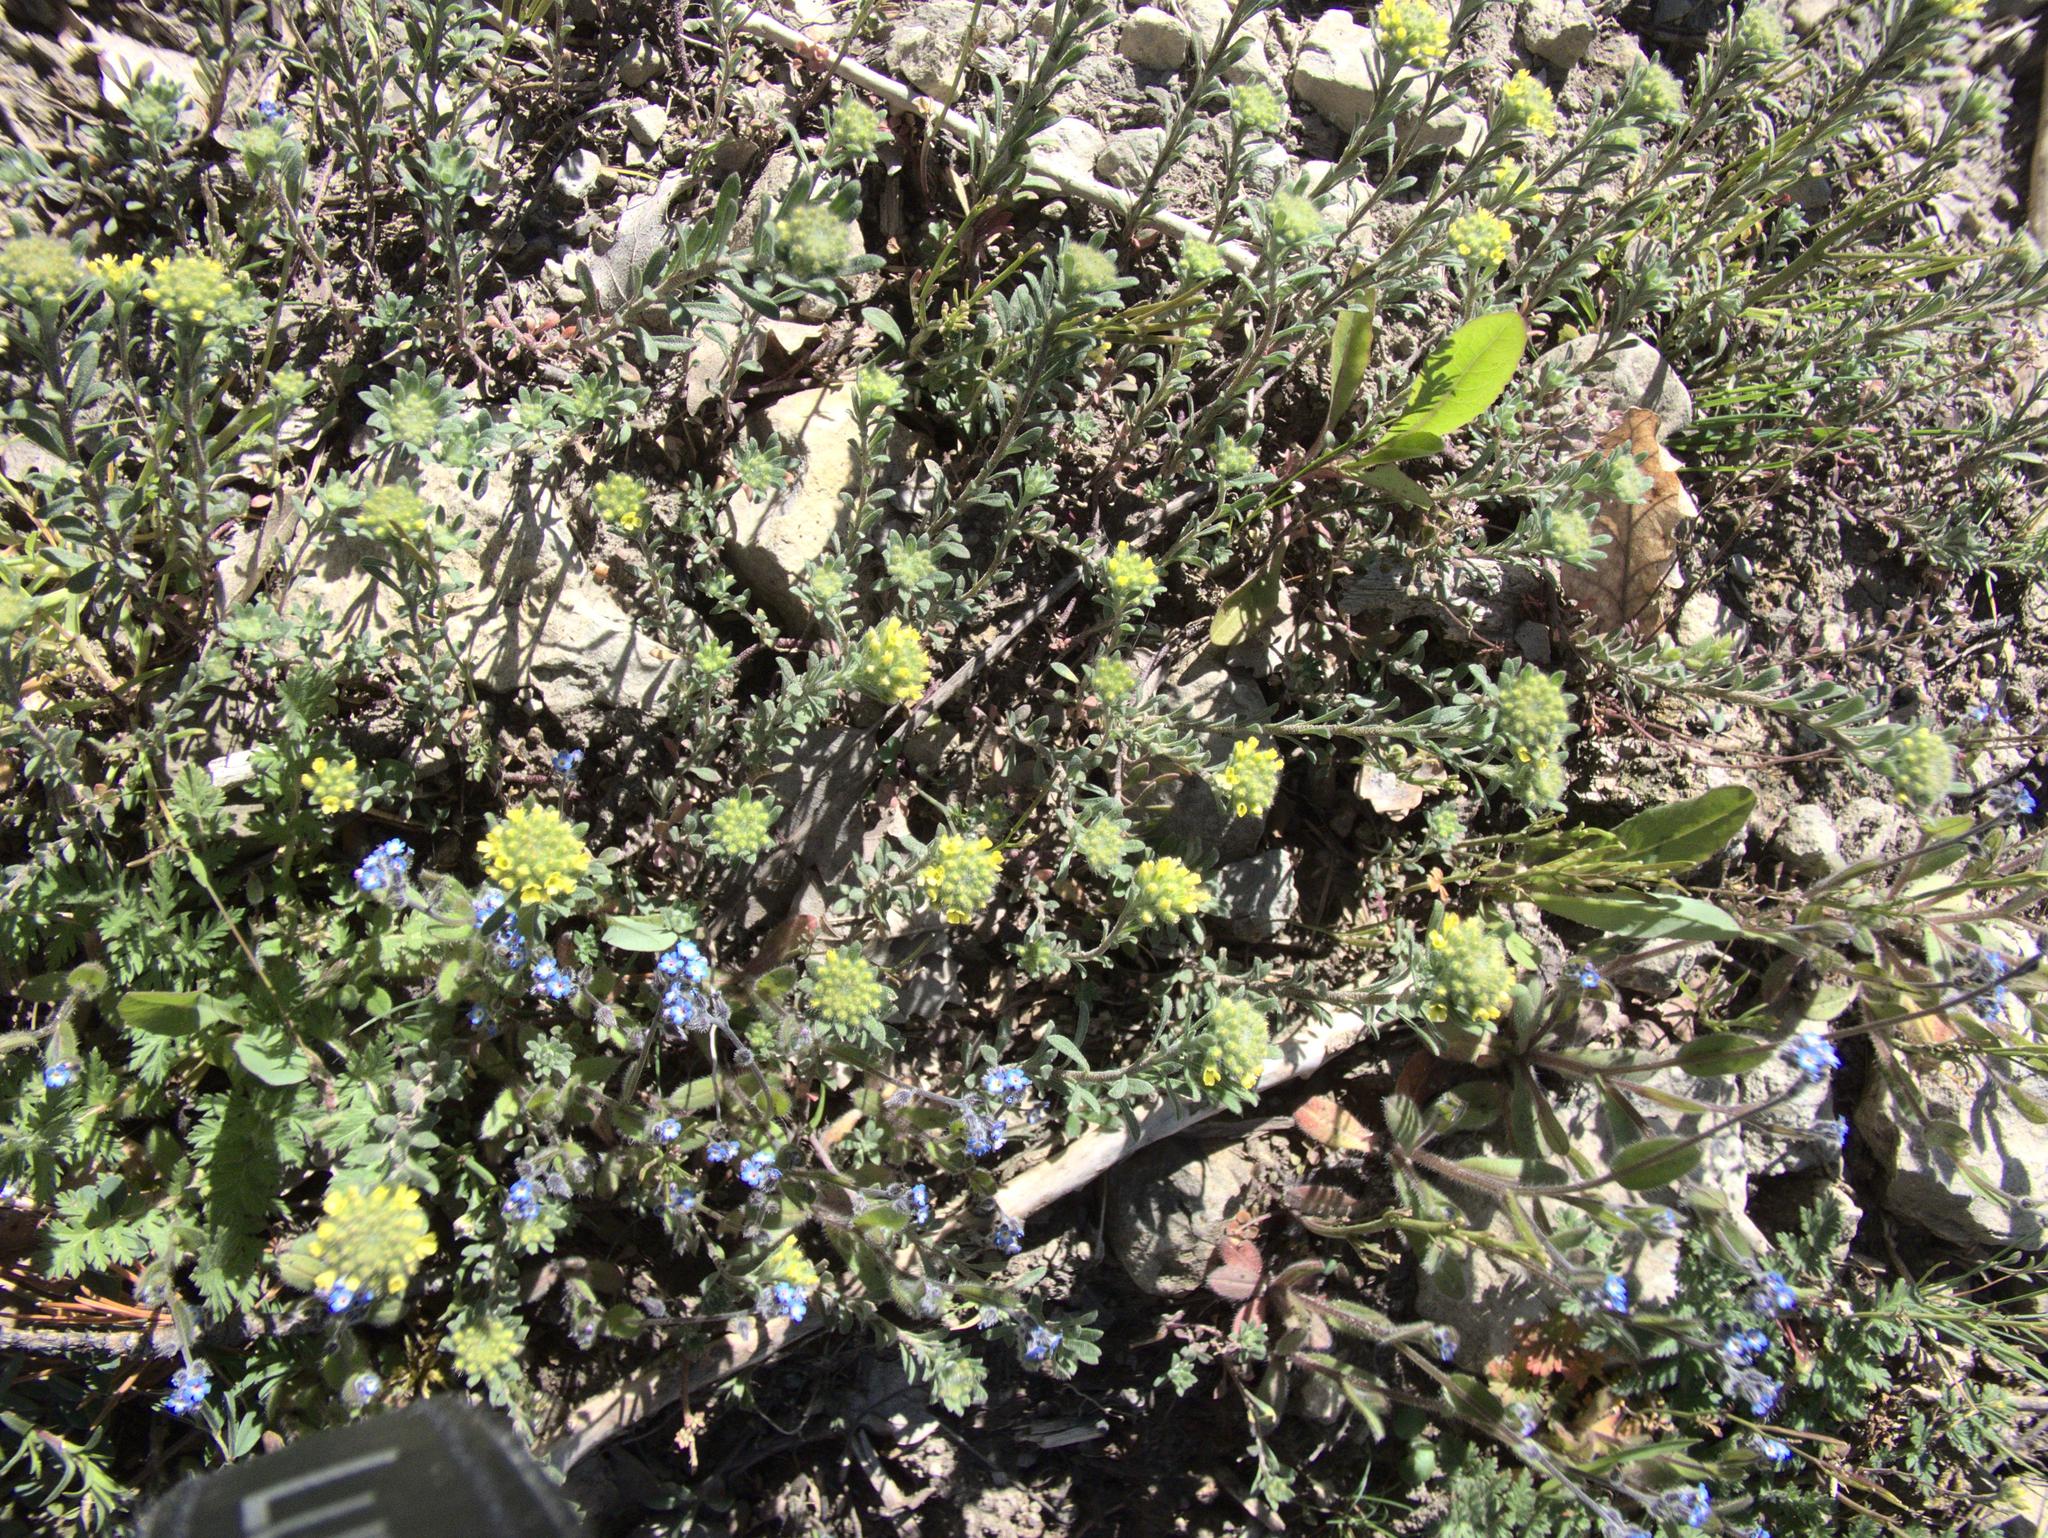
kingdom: Plantae
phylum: Tracheophyta
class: Magnoliopsida
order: Brassicales
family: Brassicaceae
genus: Alyssum
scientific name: Alyssum alyssoides
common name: Small alison
